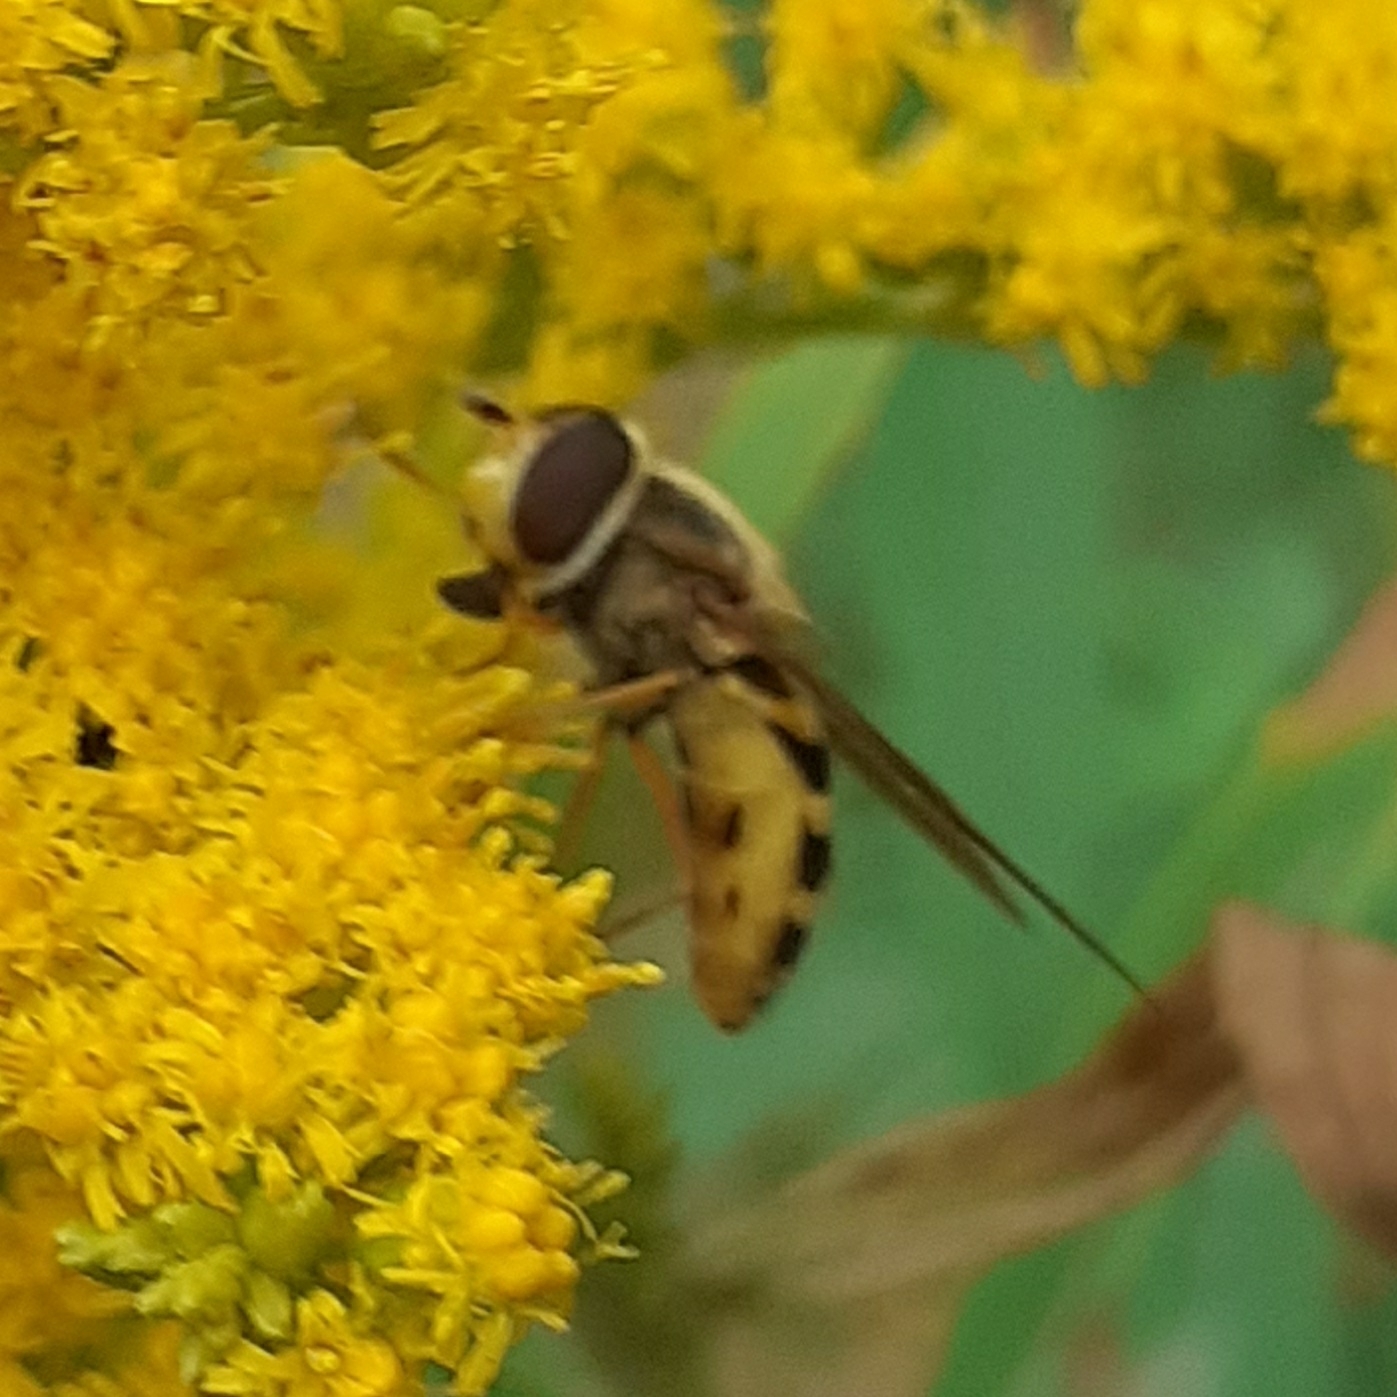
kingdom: Animalia
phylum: Arthropoda
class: Insecta
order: Diptera
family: Syrphidae
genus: Syrphus
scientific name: Syrphus ribesii
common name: Common flower fly
